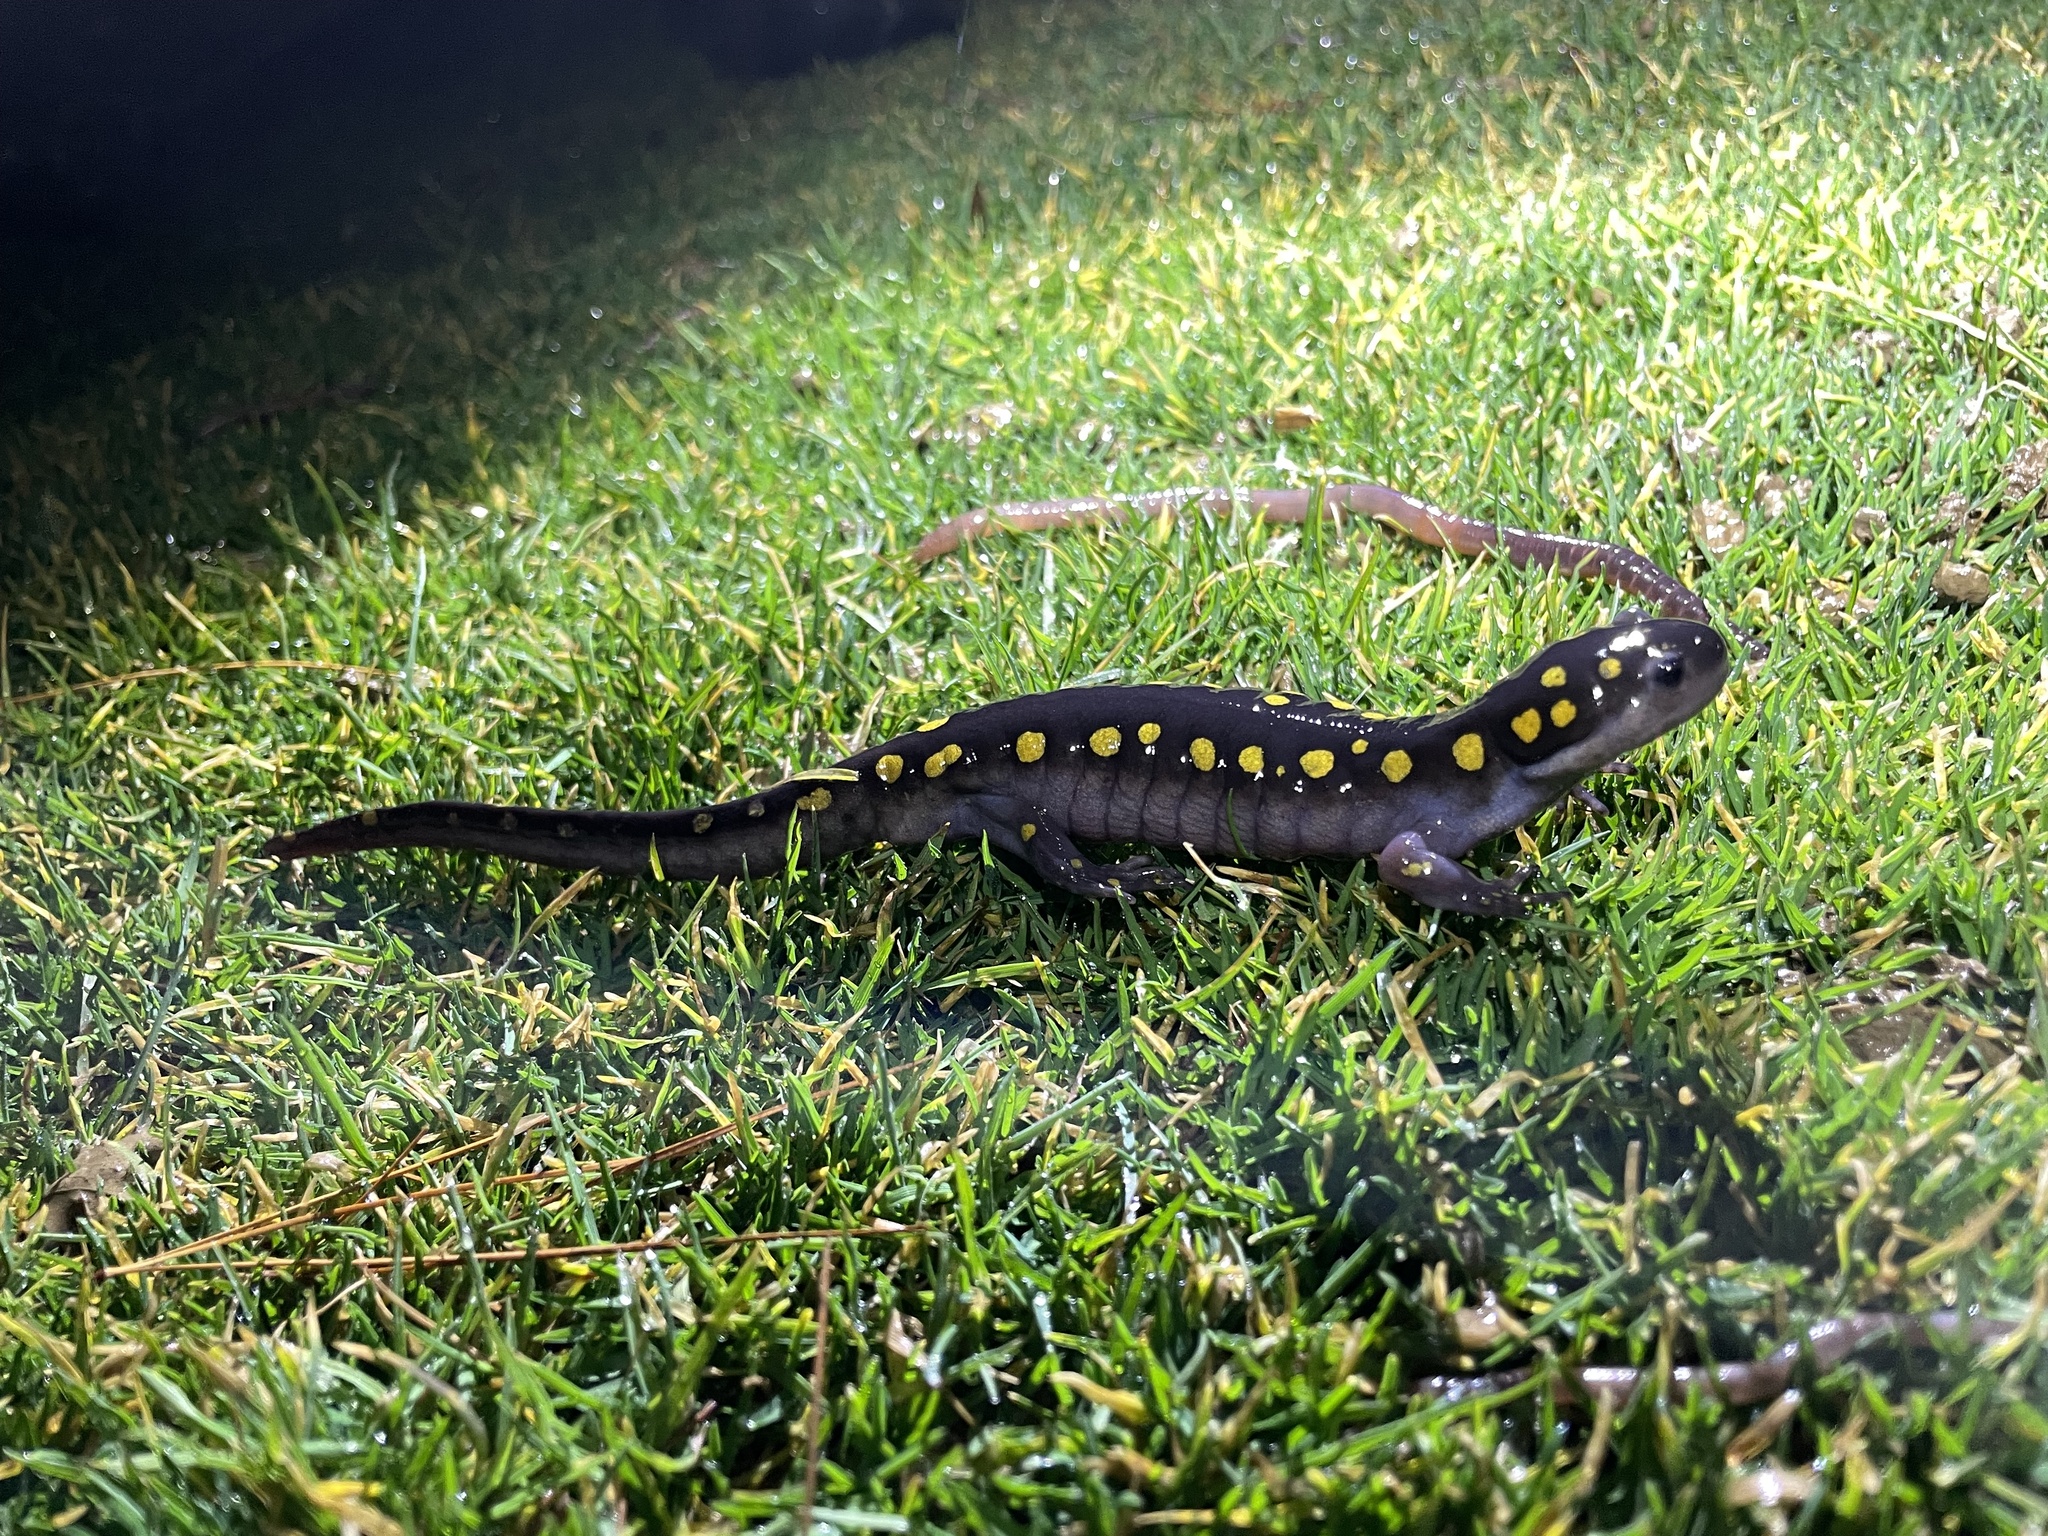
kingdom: Animalia
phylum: Chordata
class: Amphibia
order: Caudata
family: Ambystomatidae
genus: Ambystoma
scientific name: Ambystoma maculatum
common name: Spotted salamander
